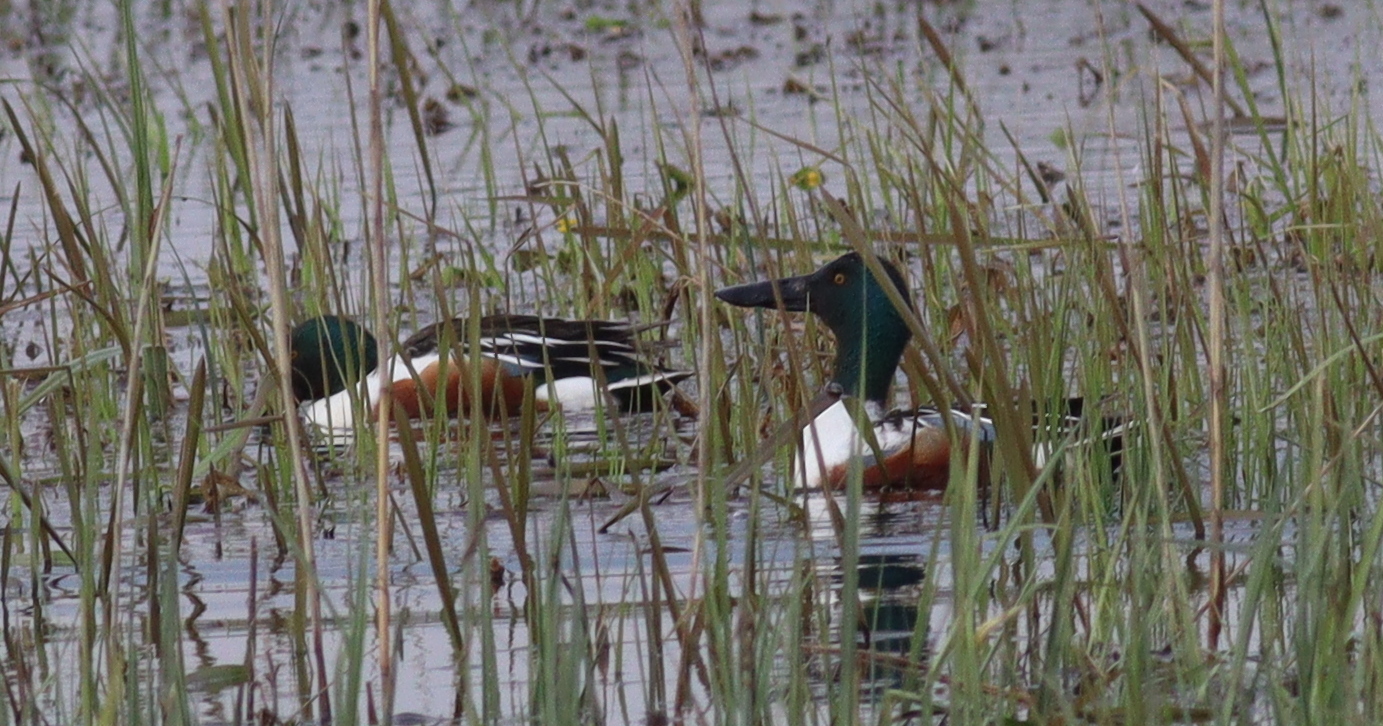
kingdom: Animalia
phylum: Chordata
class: Aves
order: Anseriformes
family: Anatidae
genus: Spatula
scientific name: Spatula clypeata
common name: Northern shoveler
